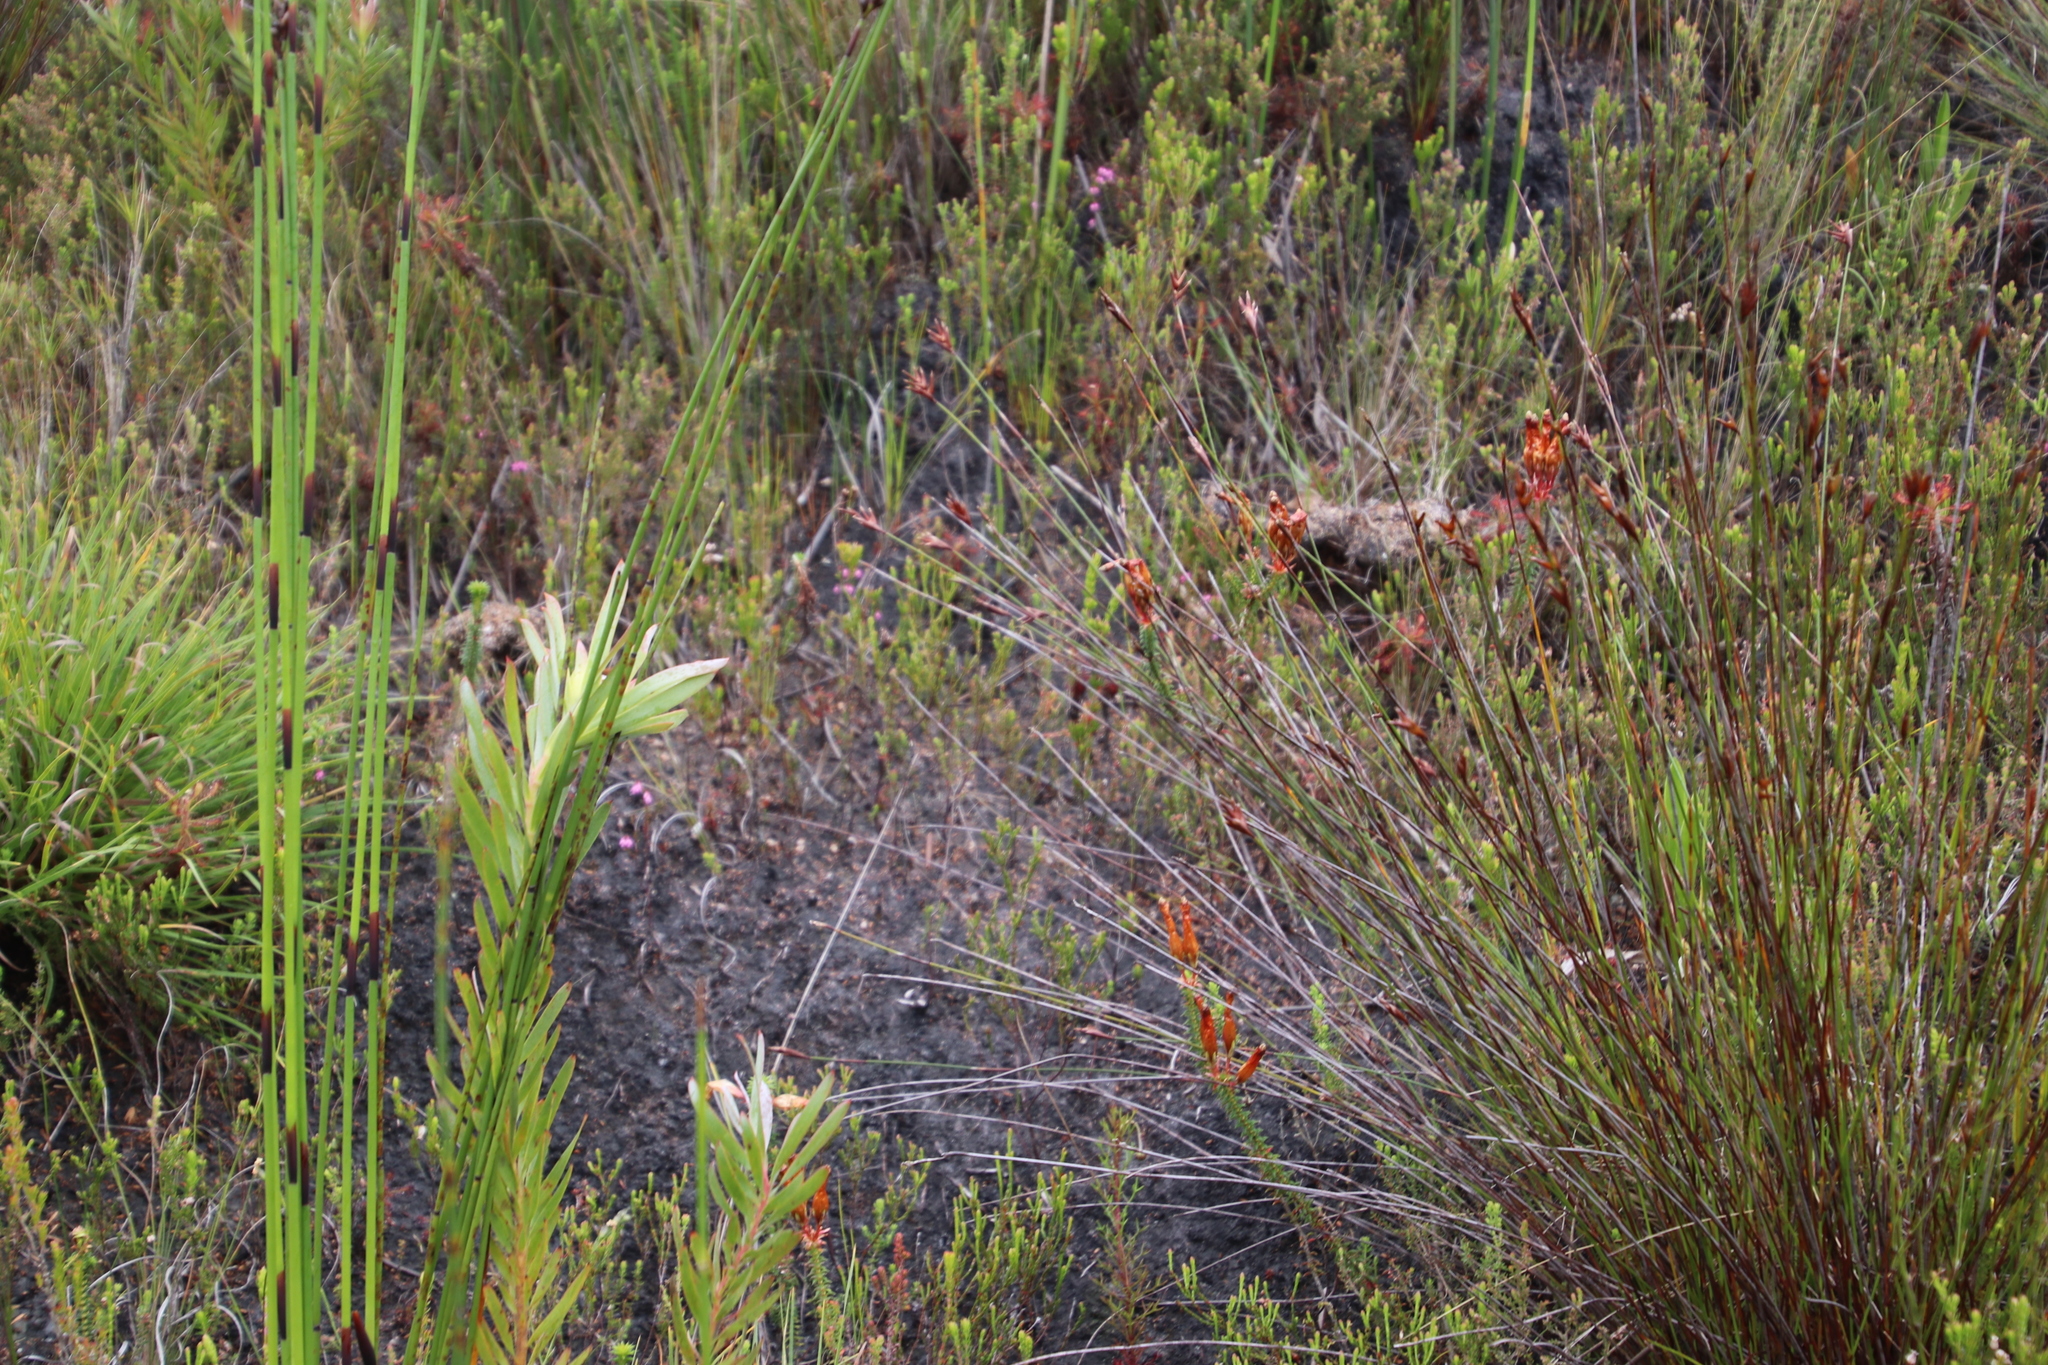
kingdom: Plantae
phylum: Tracheophyta
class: Magnoliopsida
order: Ericales
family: Ericaceae
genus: Erica
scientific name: Erica aristata
